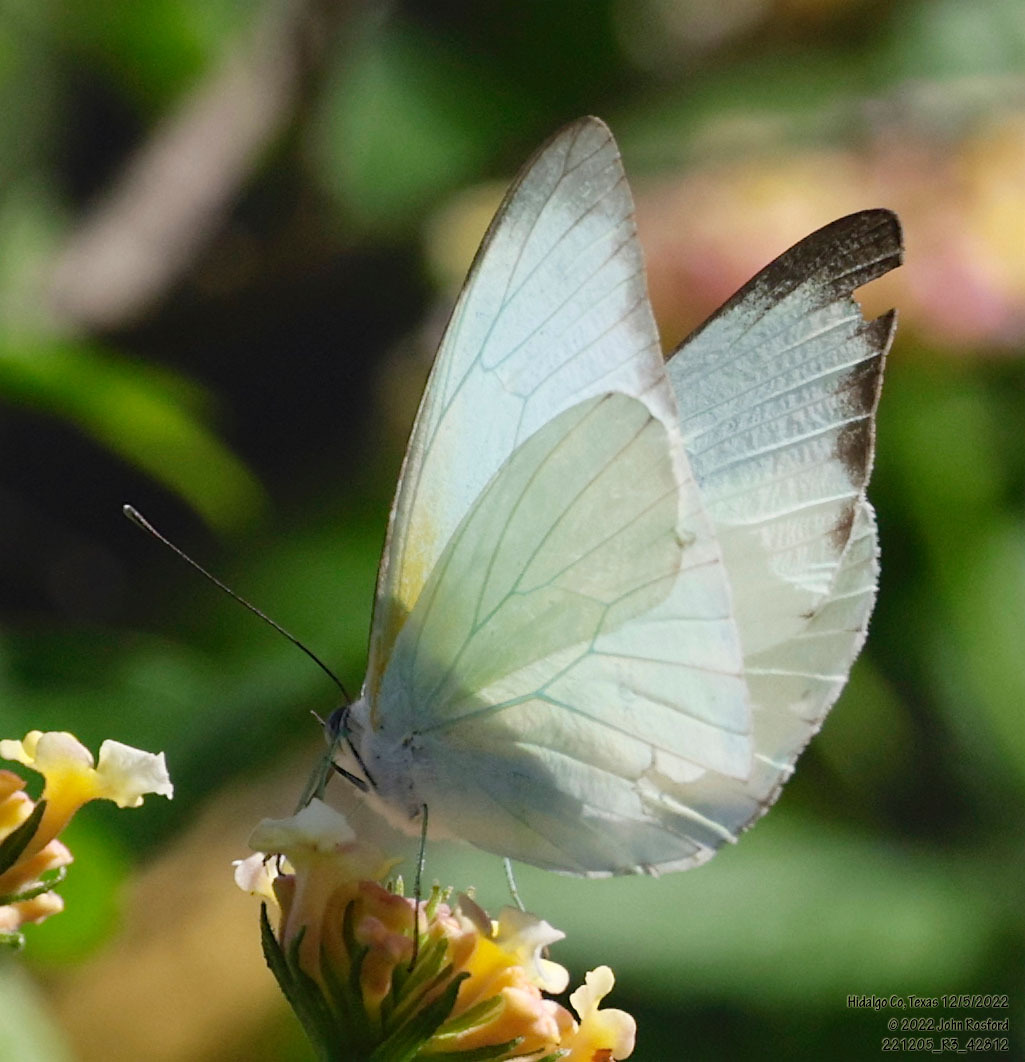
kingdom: Animalia
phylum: Arthropoda
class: Insecta
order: Lepidoptera
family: Pieridae
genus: Glutophrissa
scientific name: Glutophrissa drusilla
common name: Florida white
